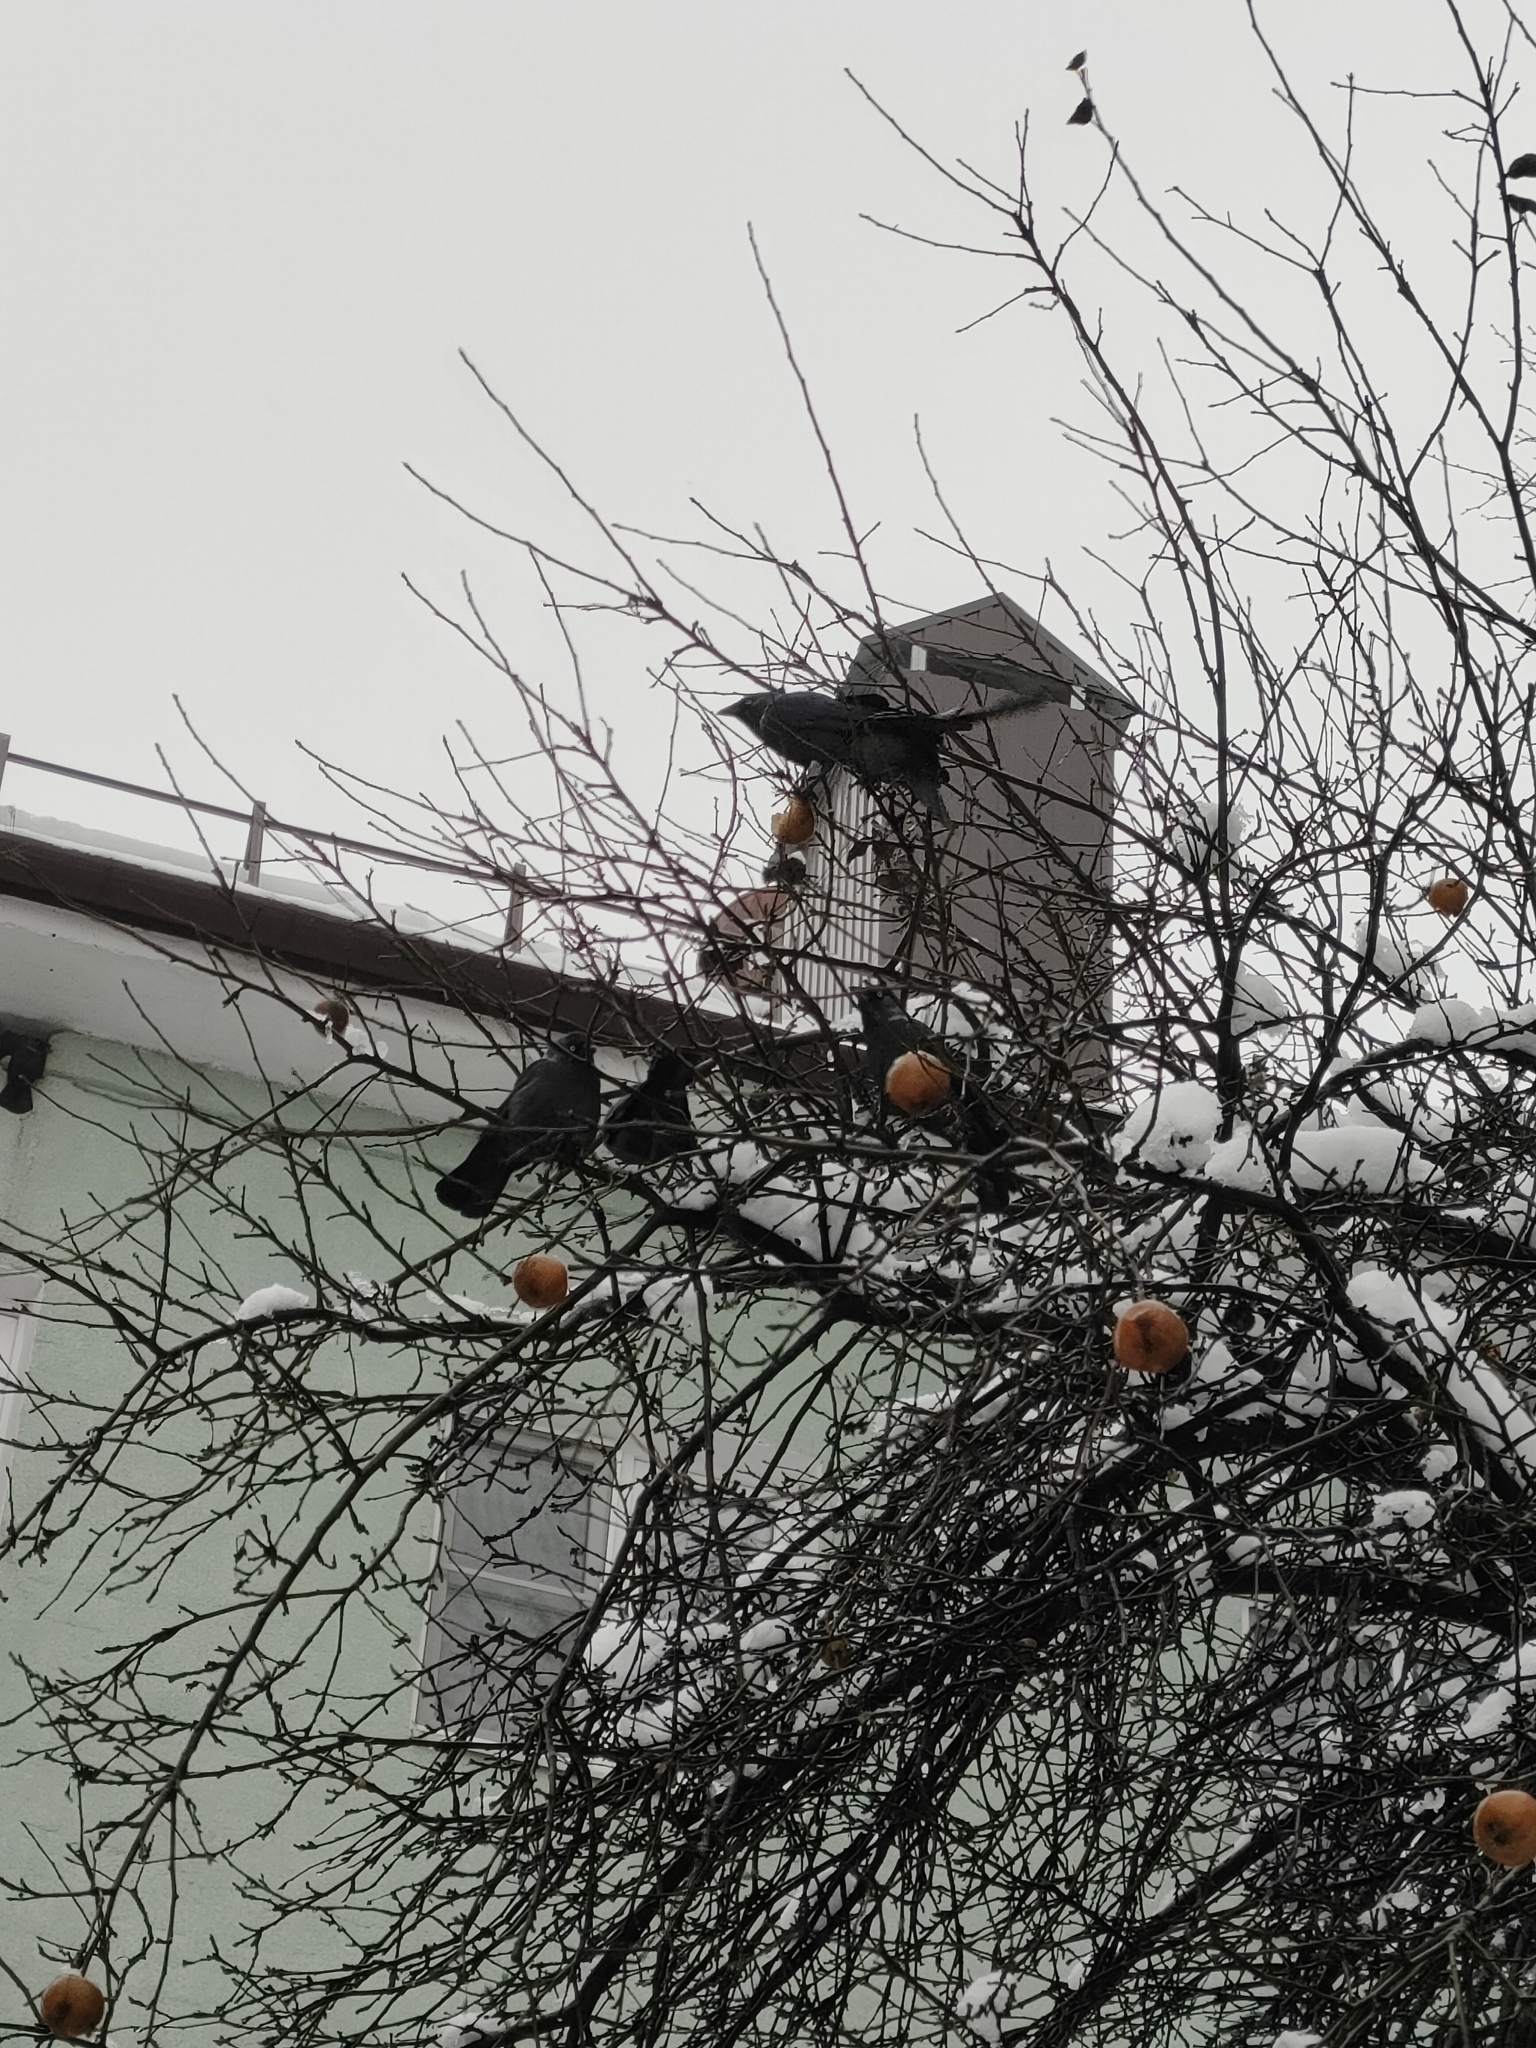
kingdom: Animalia
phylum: Chordata
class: Aves
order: Passeriformes
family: Corvidae
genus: Coloeus
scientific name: Coloeus monedula
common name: Western jackdaw
